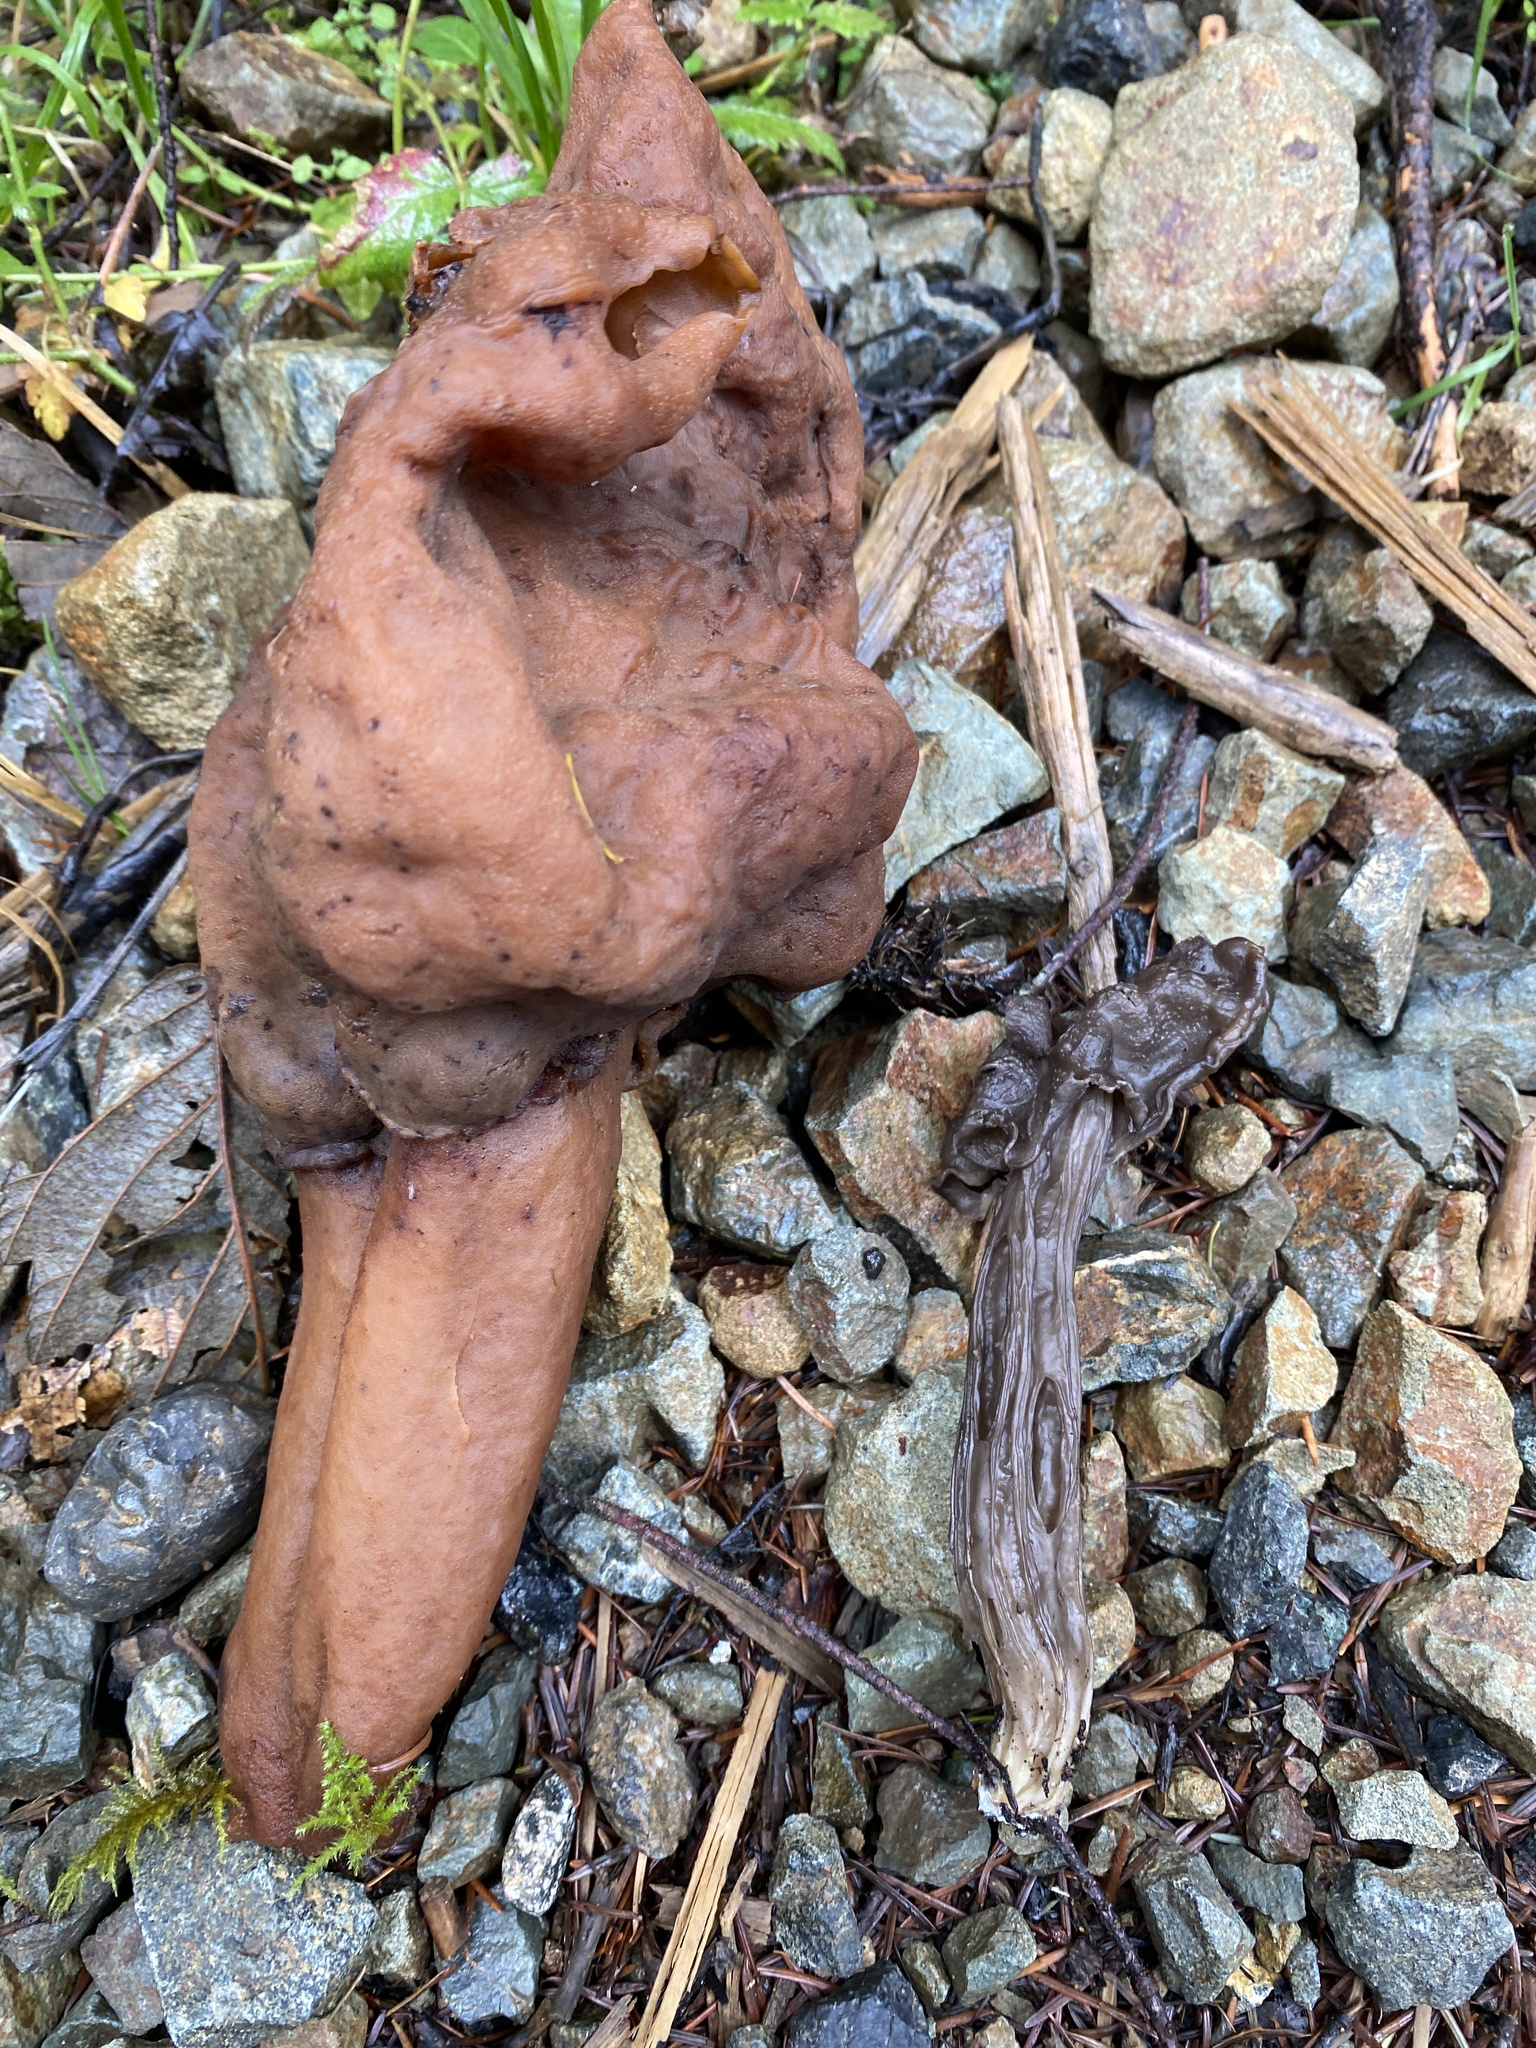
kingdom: Fungi
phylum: Ascomycota
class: Pezizomycetes
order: Pezizales
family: Discinaceae
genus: Gyromitra
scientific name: Gyromitra infula
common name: Pouched false morel
